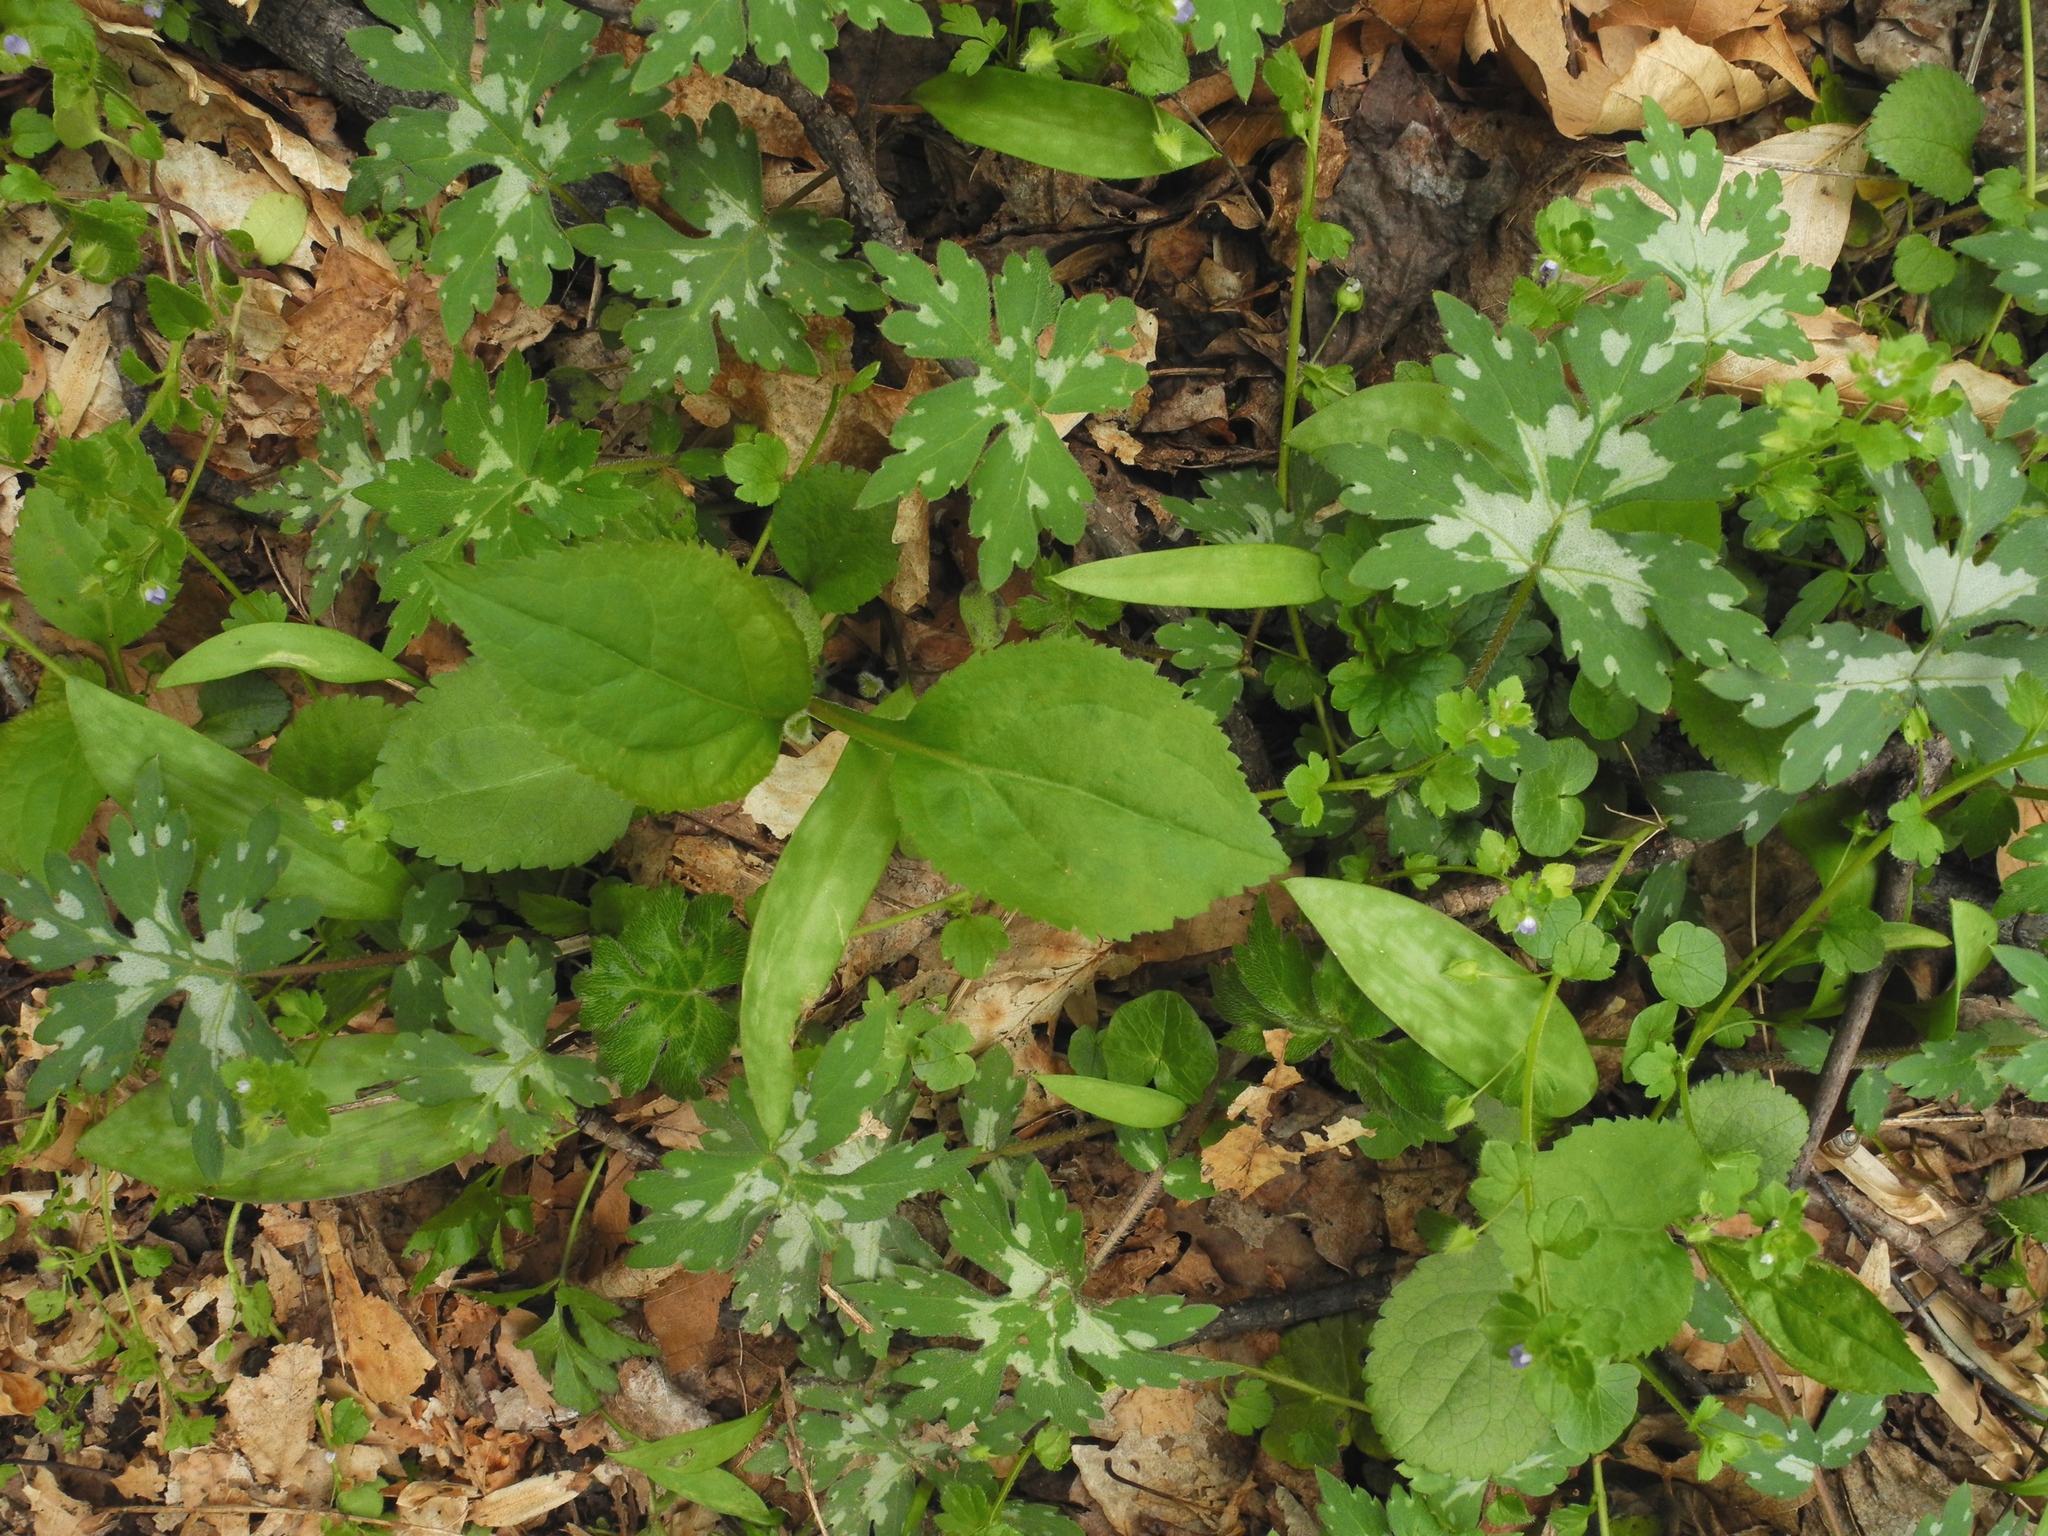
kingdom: Plantae
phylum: Tracheophyta
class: Magnoliopsida
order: Asterales
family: Asteraceae
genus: Solidago
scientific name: Solidago flexicaulis
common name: Zig-zag goldenrod
